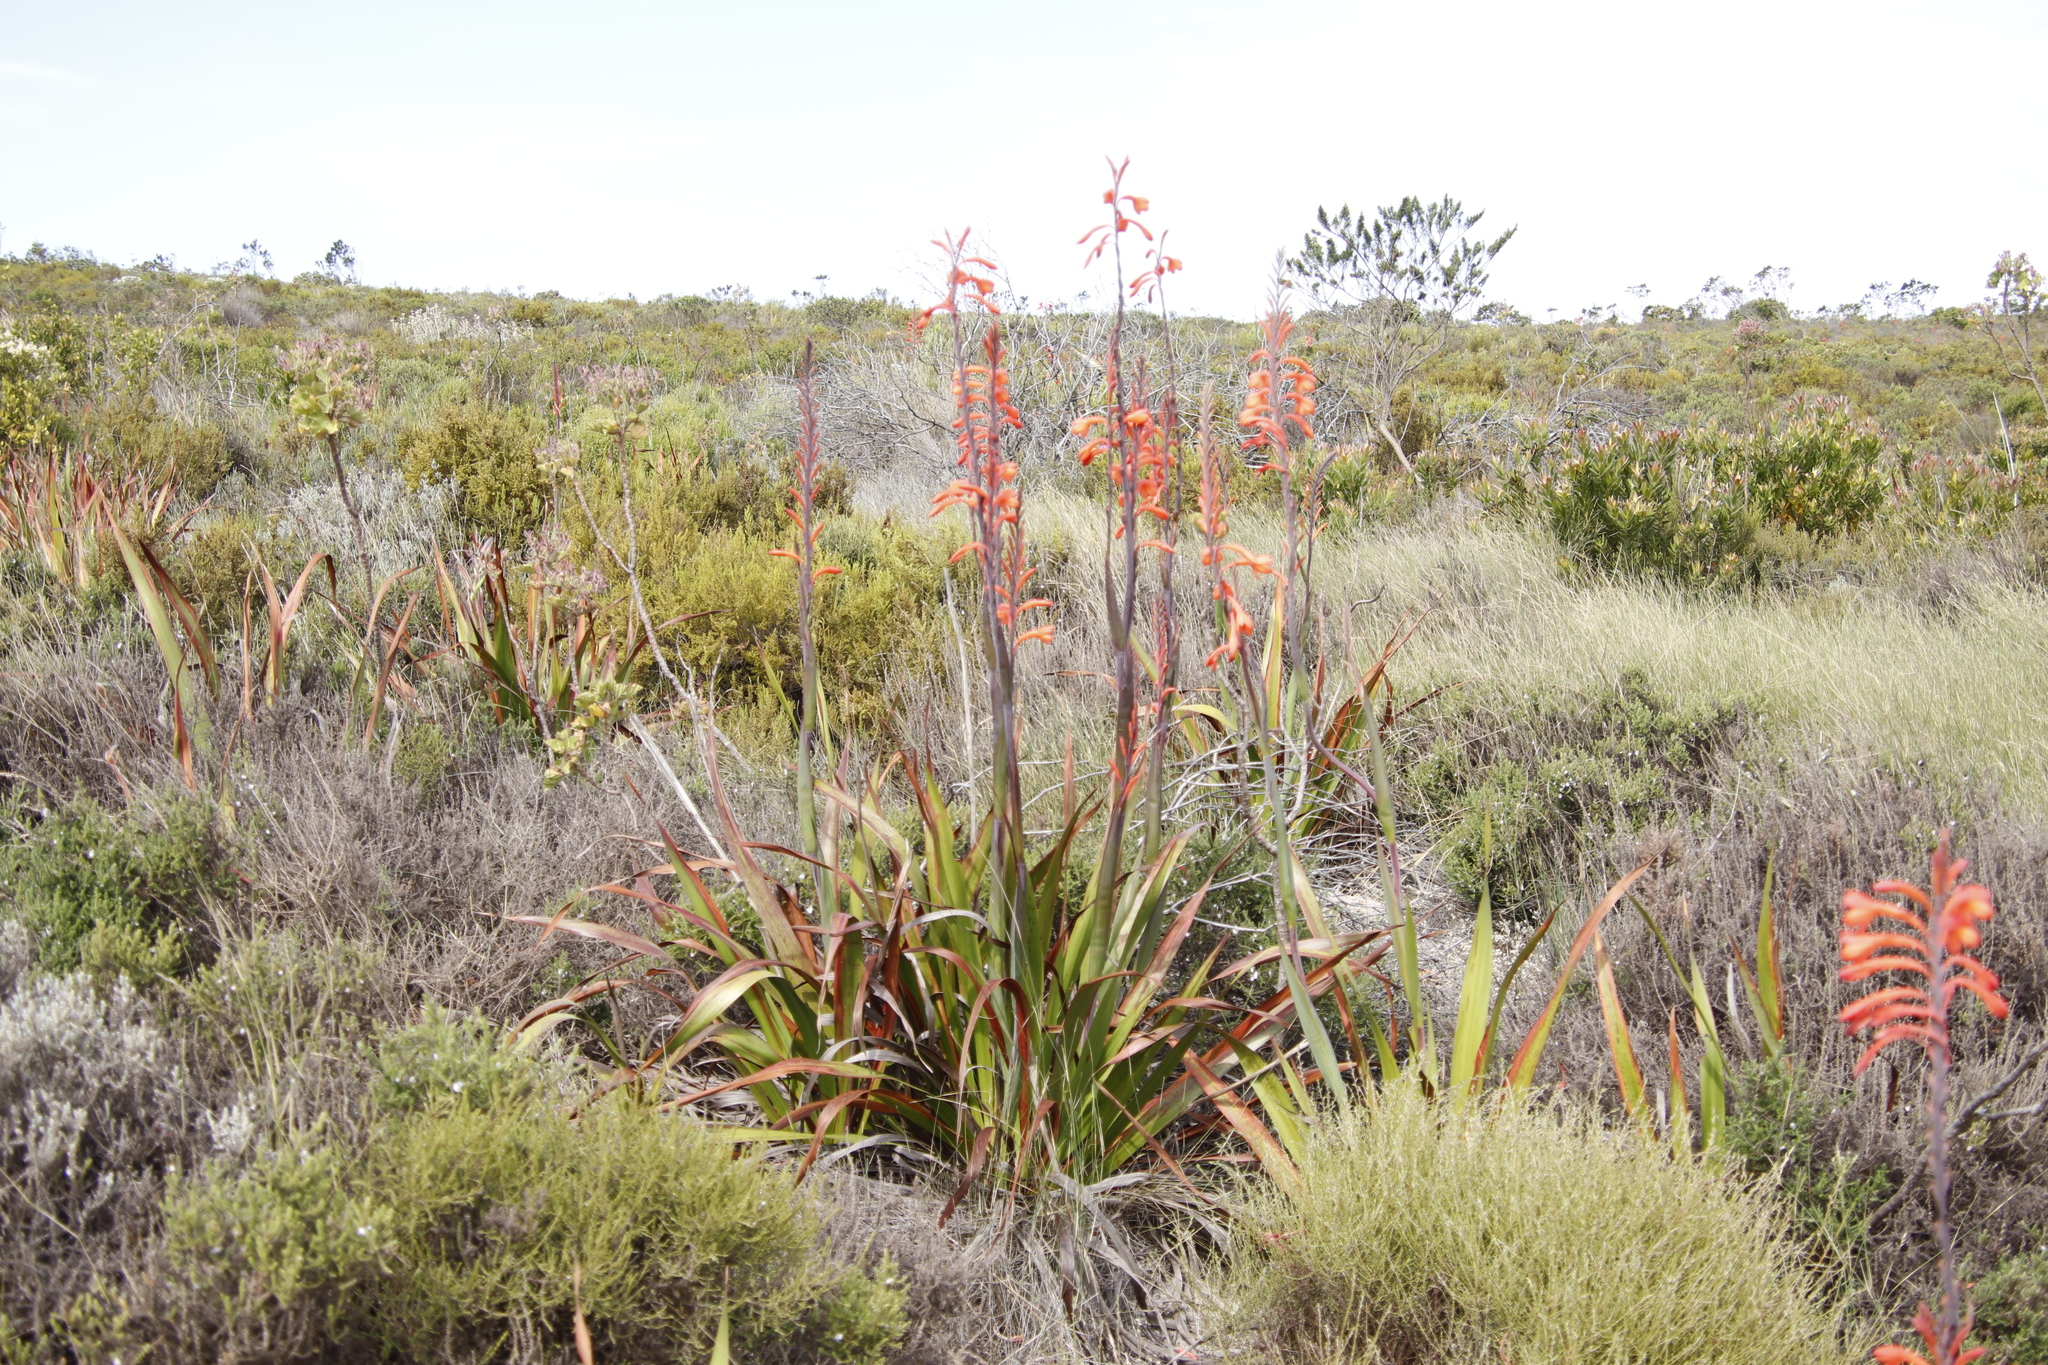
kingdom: Plantae
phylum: Tracheophyta
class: Liliopsida
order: Asparagales
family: Iridaceae
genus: Watsonia
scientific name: Watsonia tabularis
